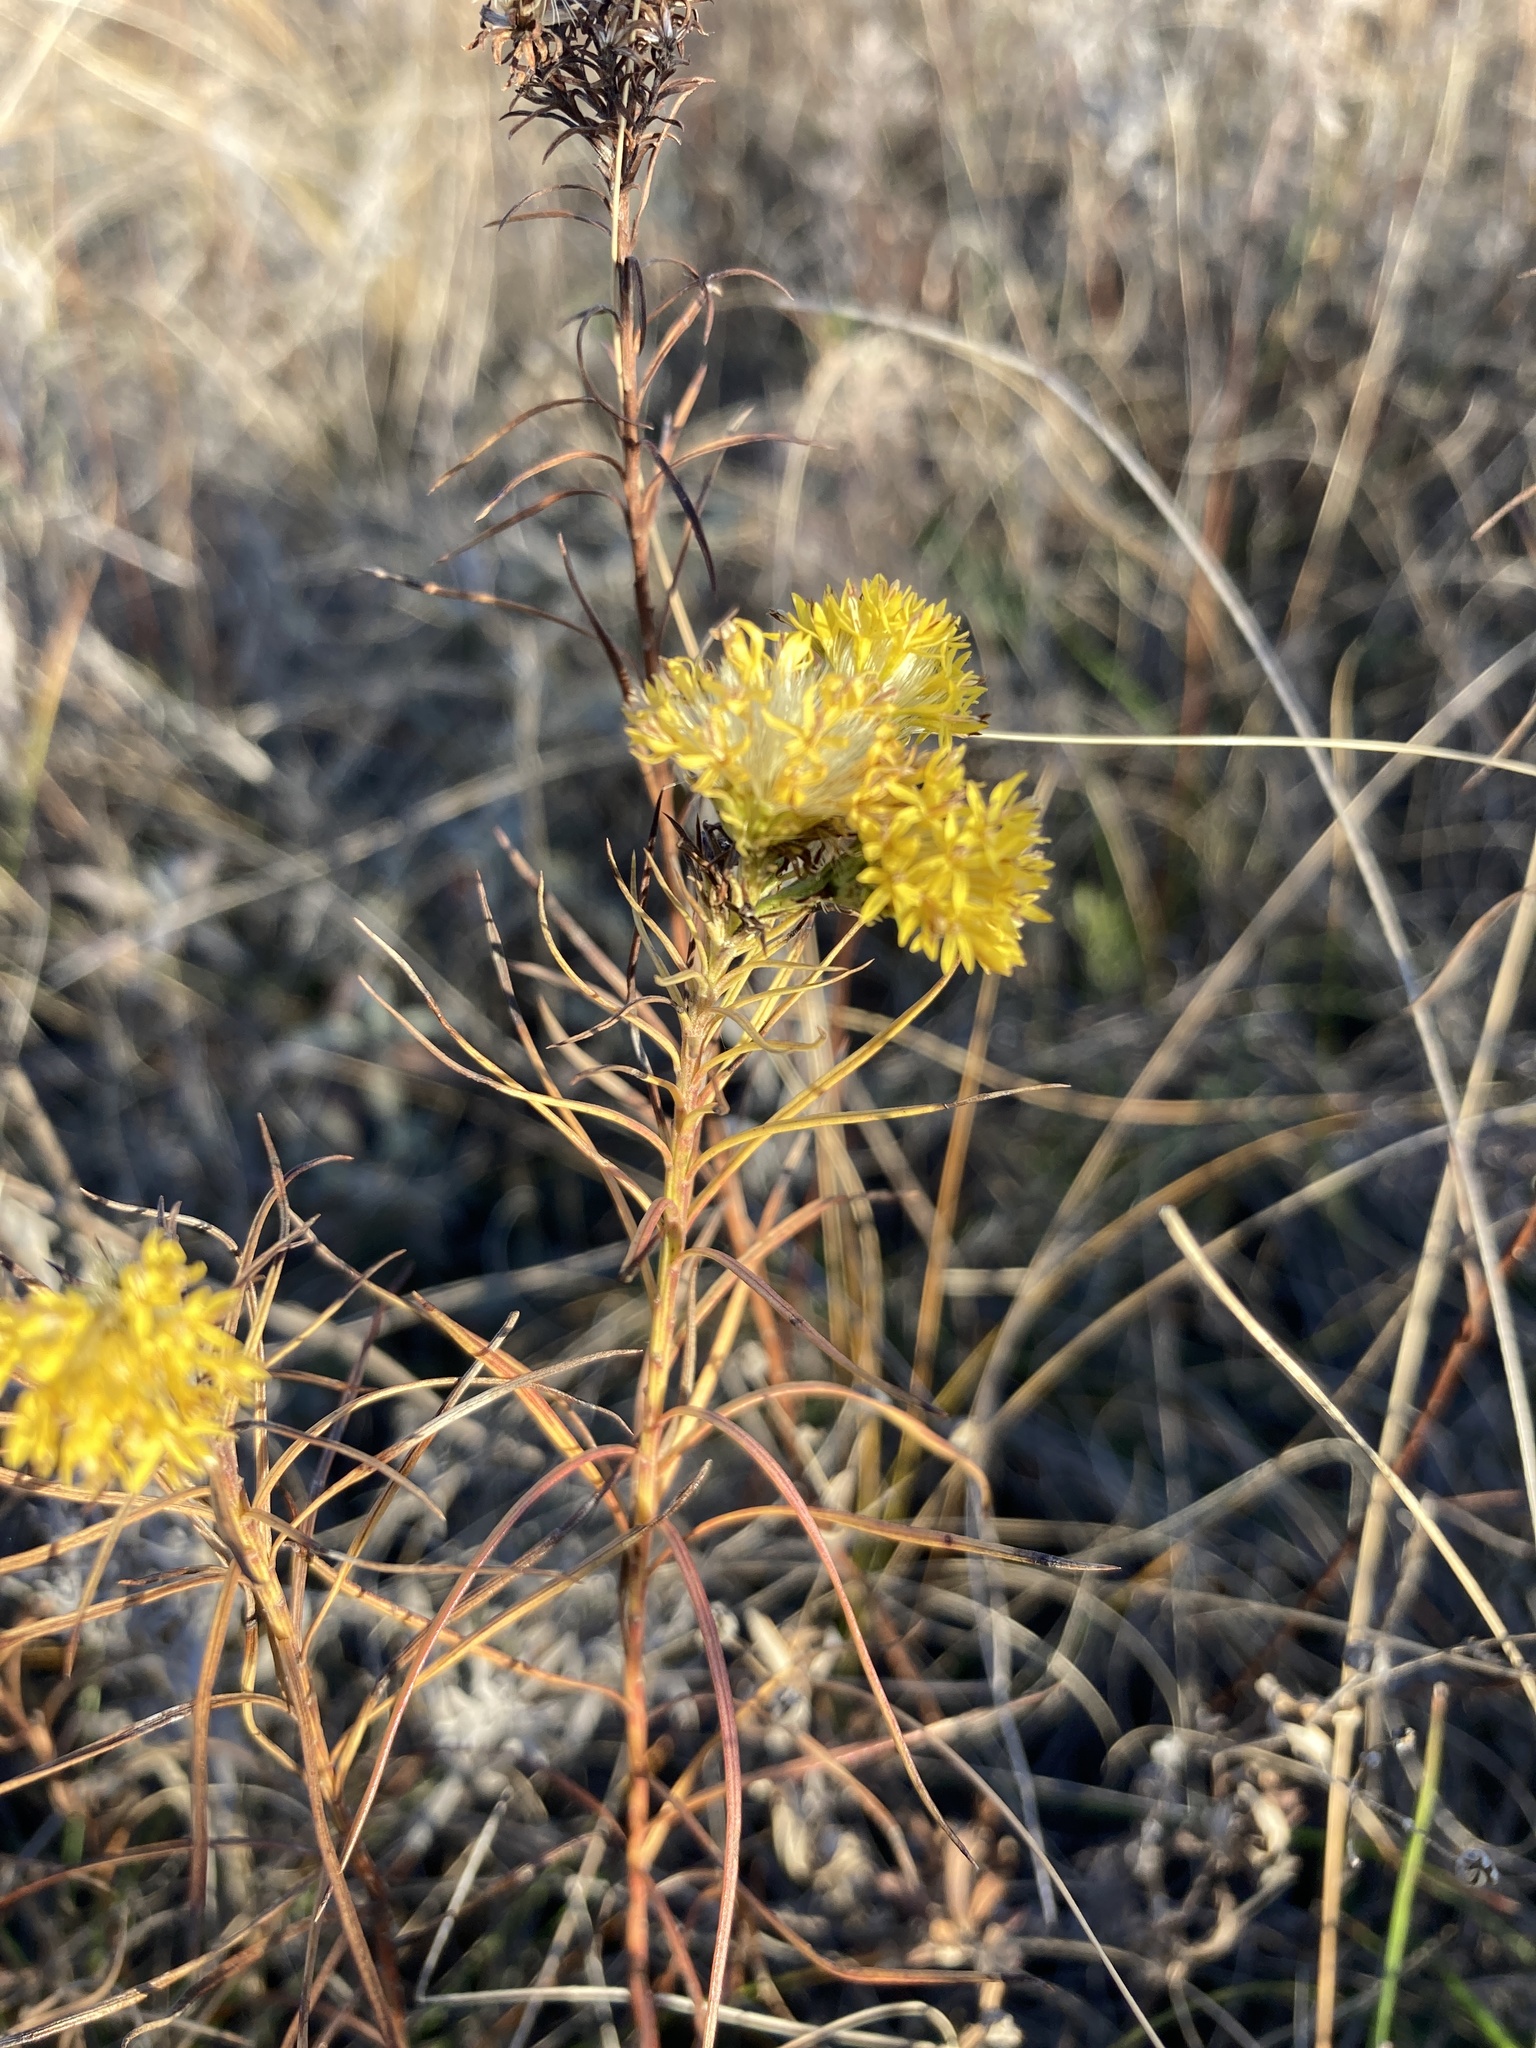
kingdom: Plantae
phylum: Tracheophyta
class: Magnoliopsida
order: Asterales
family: Asteraceae
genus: Galatella
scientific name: Galatella linosyris
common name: Goldilocks aster
